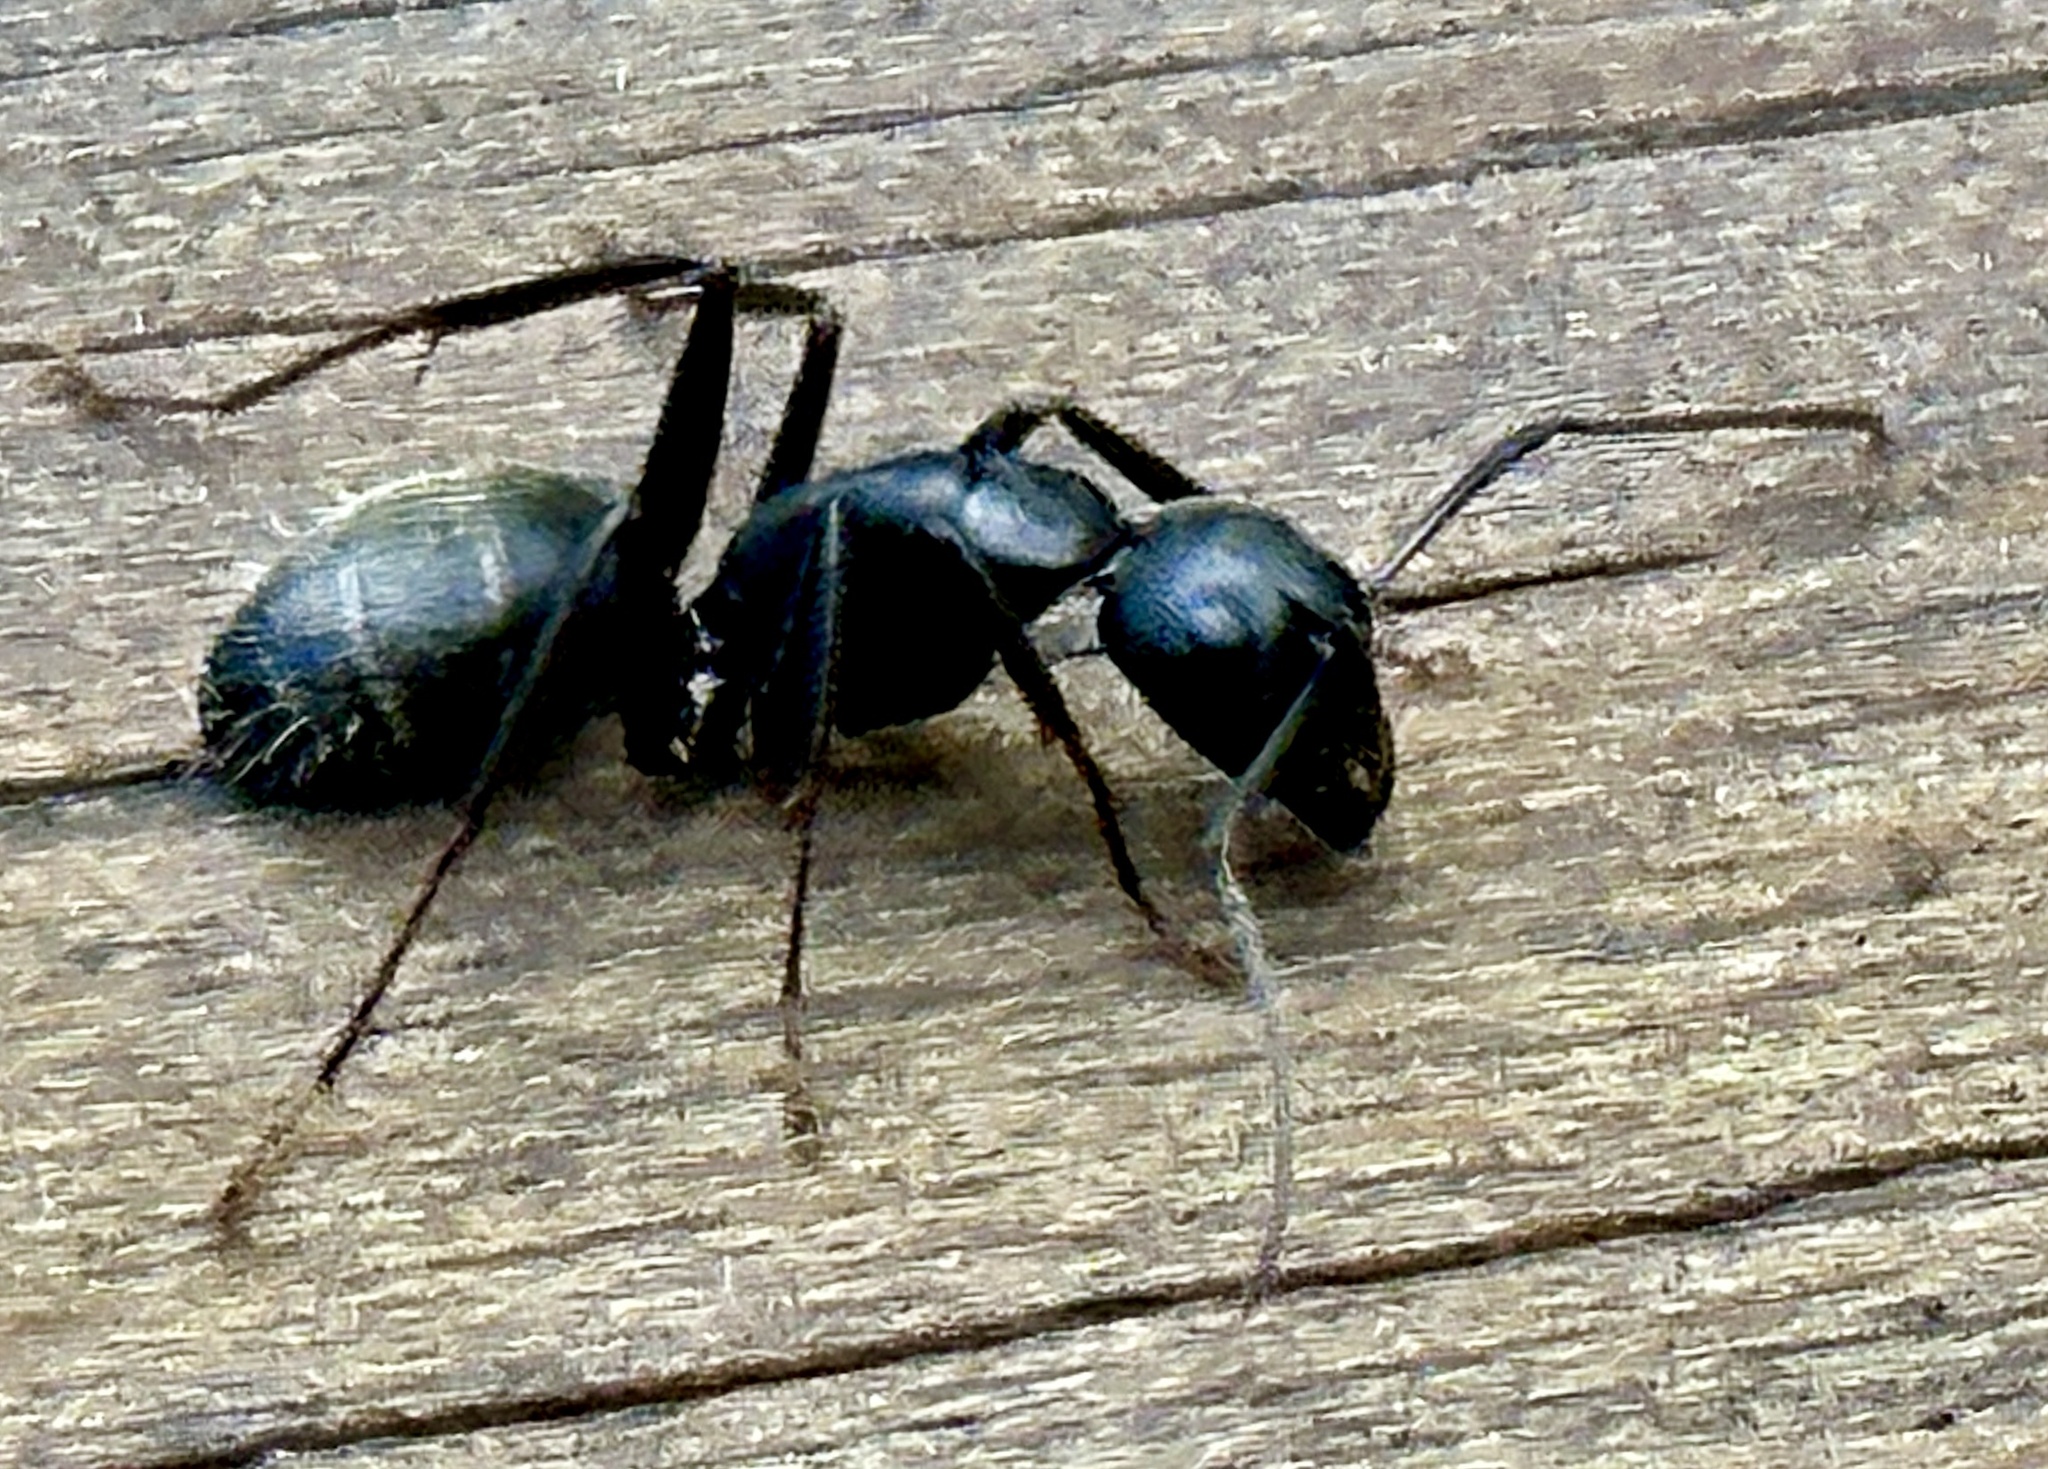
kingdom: Animalia
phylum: Arthropoda
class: Insecta
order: Hymenoptera
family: Formicidae
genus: Camponotus
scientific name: Camponotus pennsylvanicus
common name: Black carpenter ant
